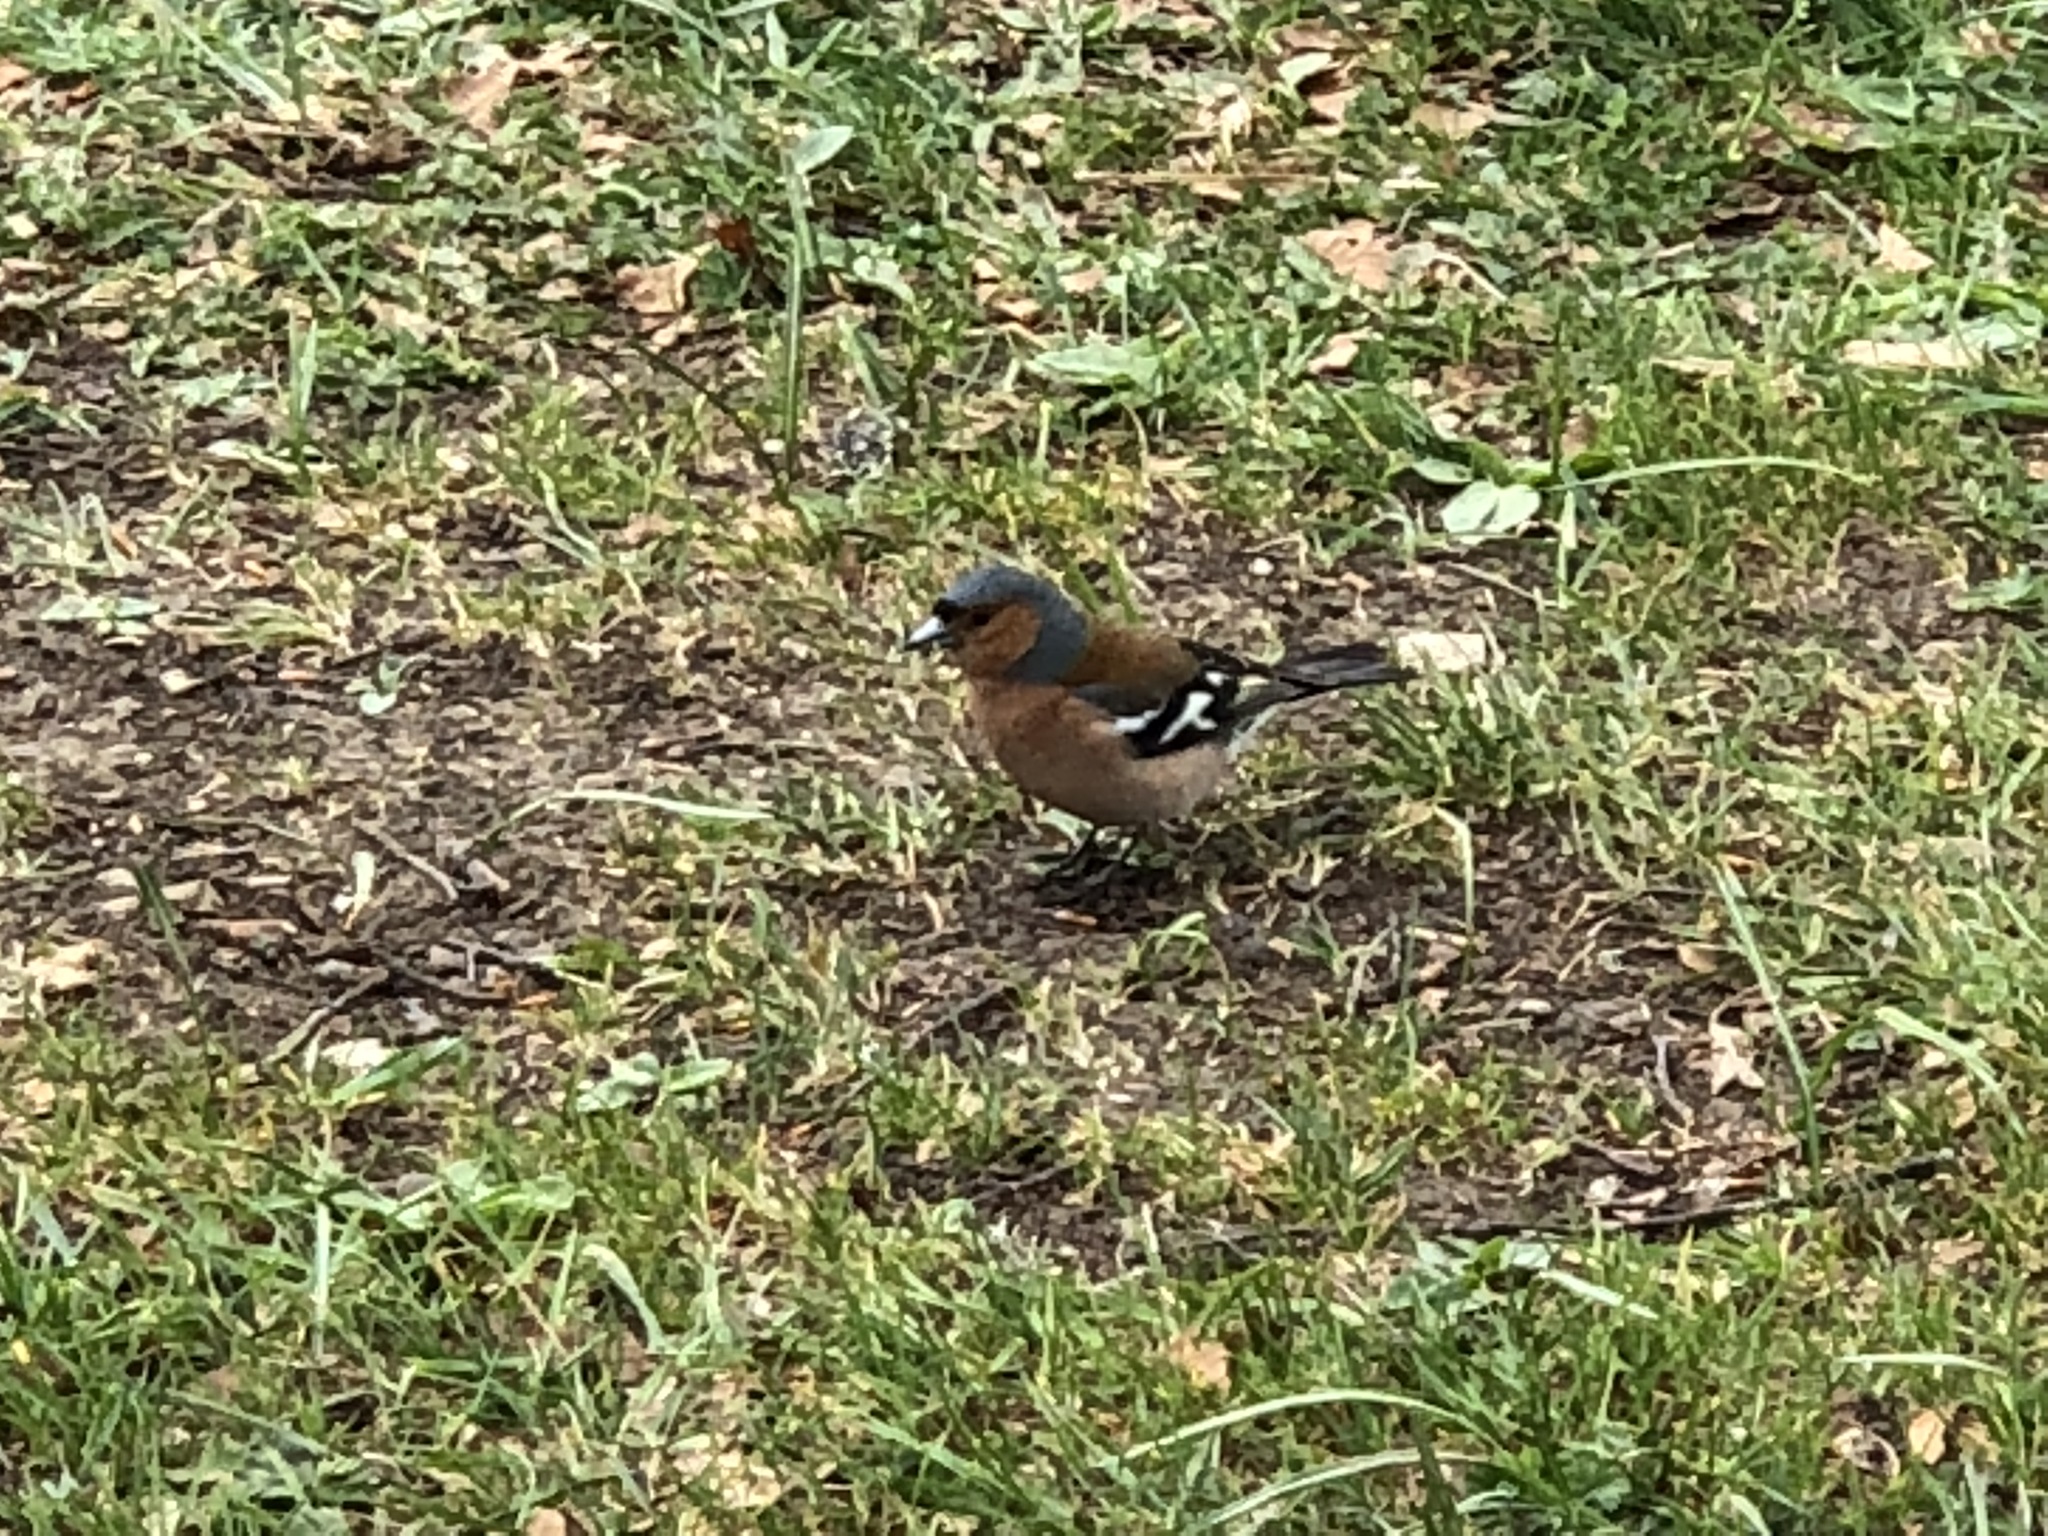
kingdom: Animalia
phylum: Chordata
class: Aves
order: Passeriformes
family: Fringillidae
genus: Fringilla
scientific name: Fringilla coelebs
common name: Common chaffinch
